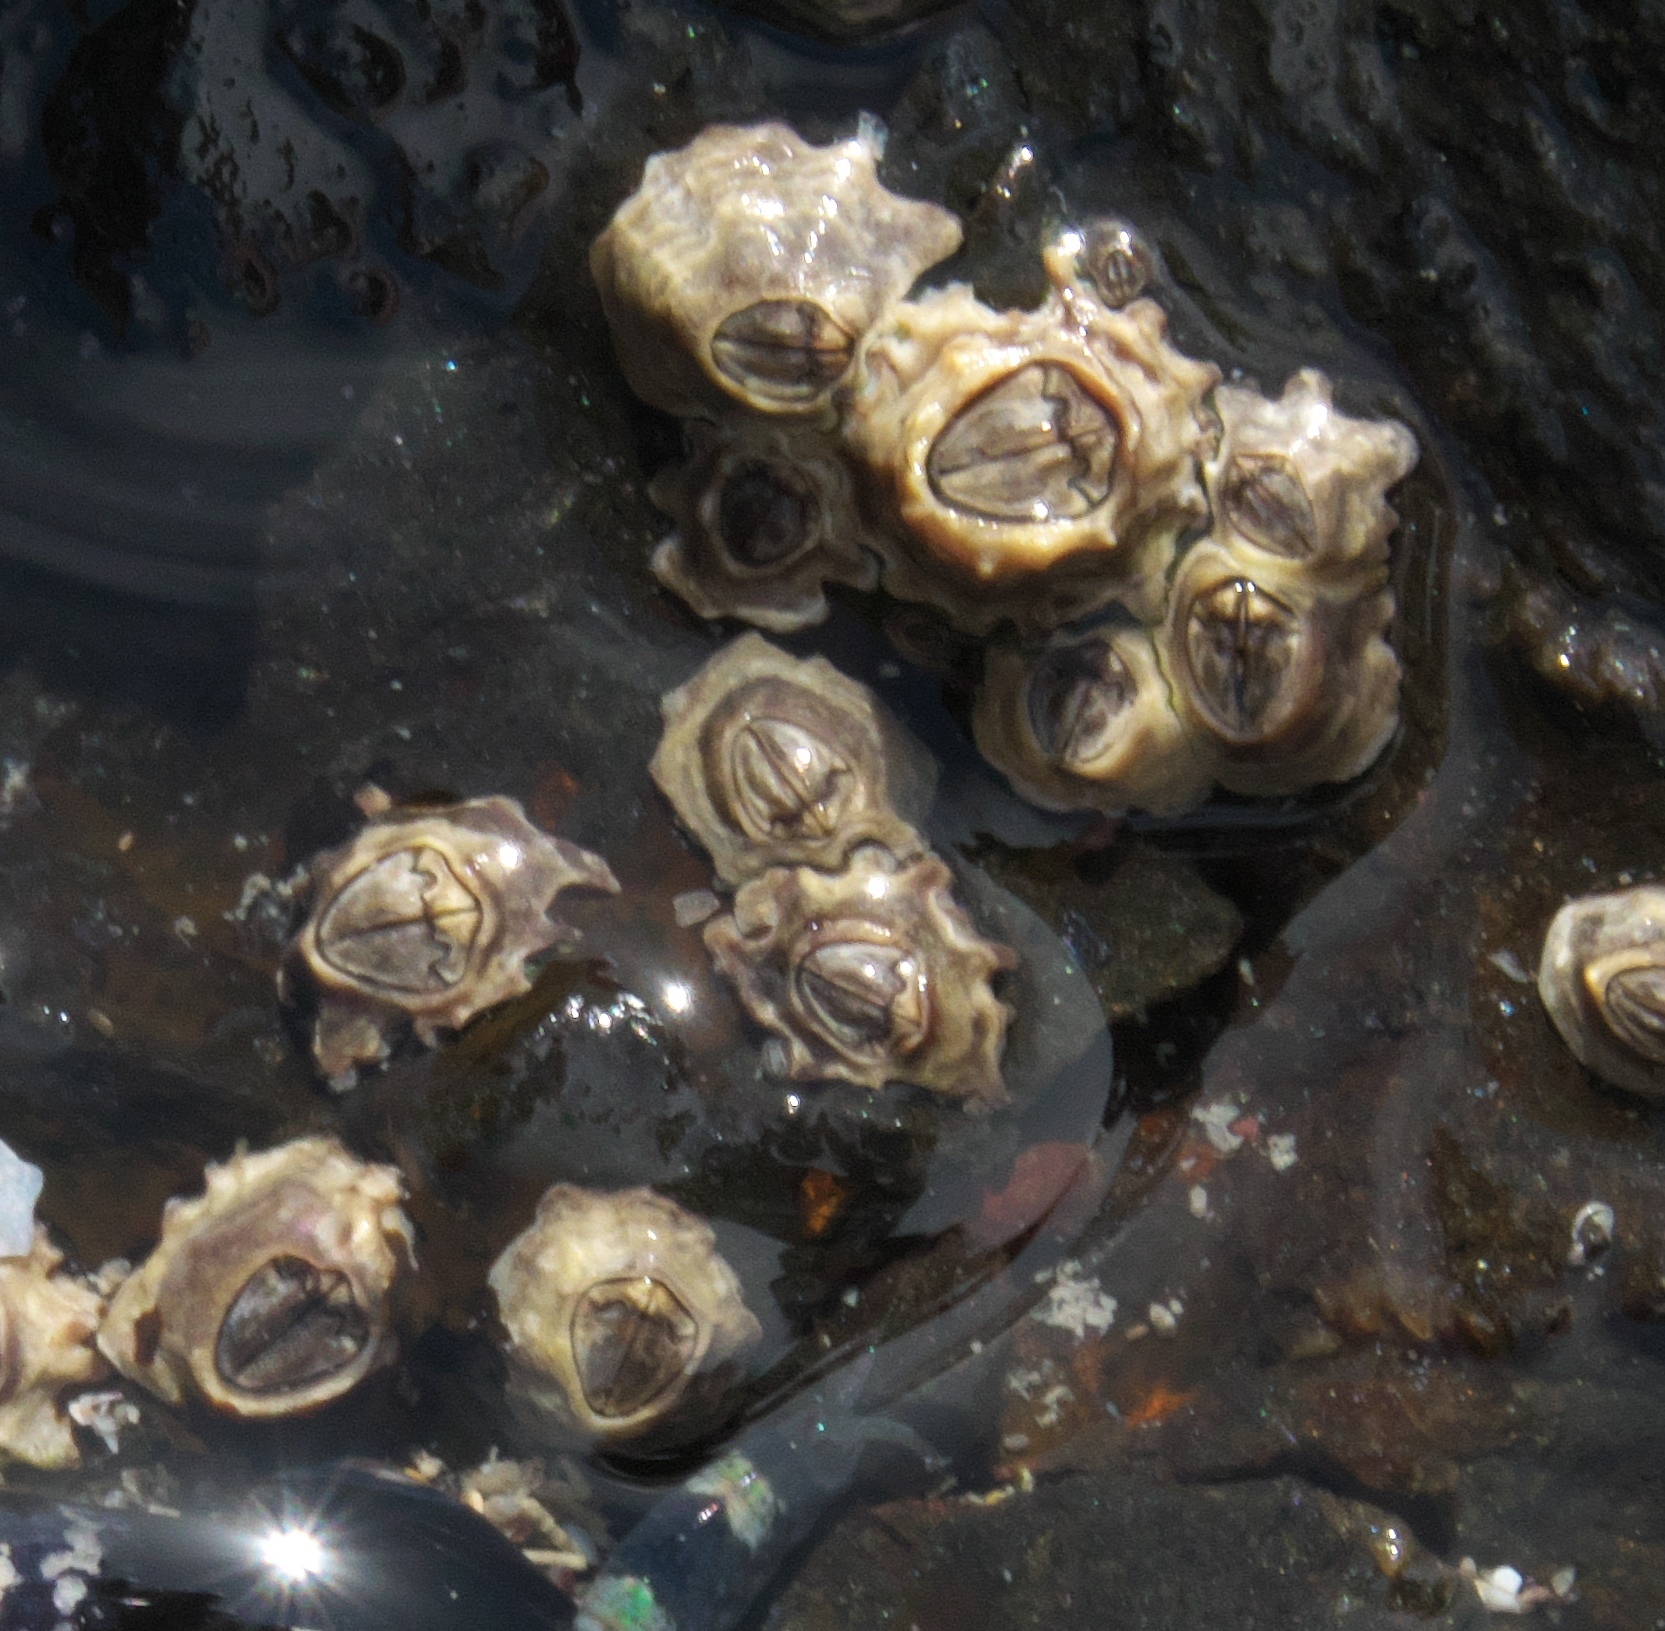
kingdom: Animalia
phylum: Arthropoda
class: Maxillopoda
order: Sessilia
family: Chthamalidae
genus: Chamaesipho
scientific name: Chamaesipho columna
